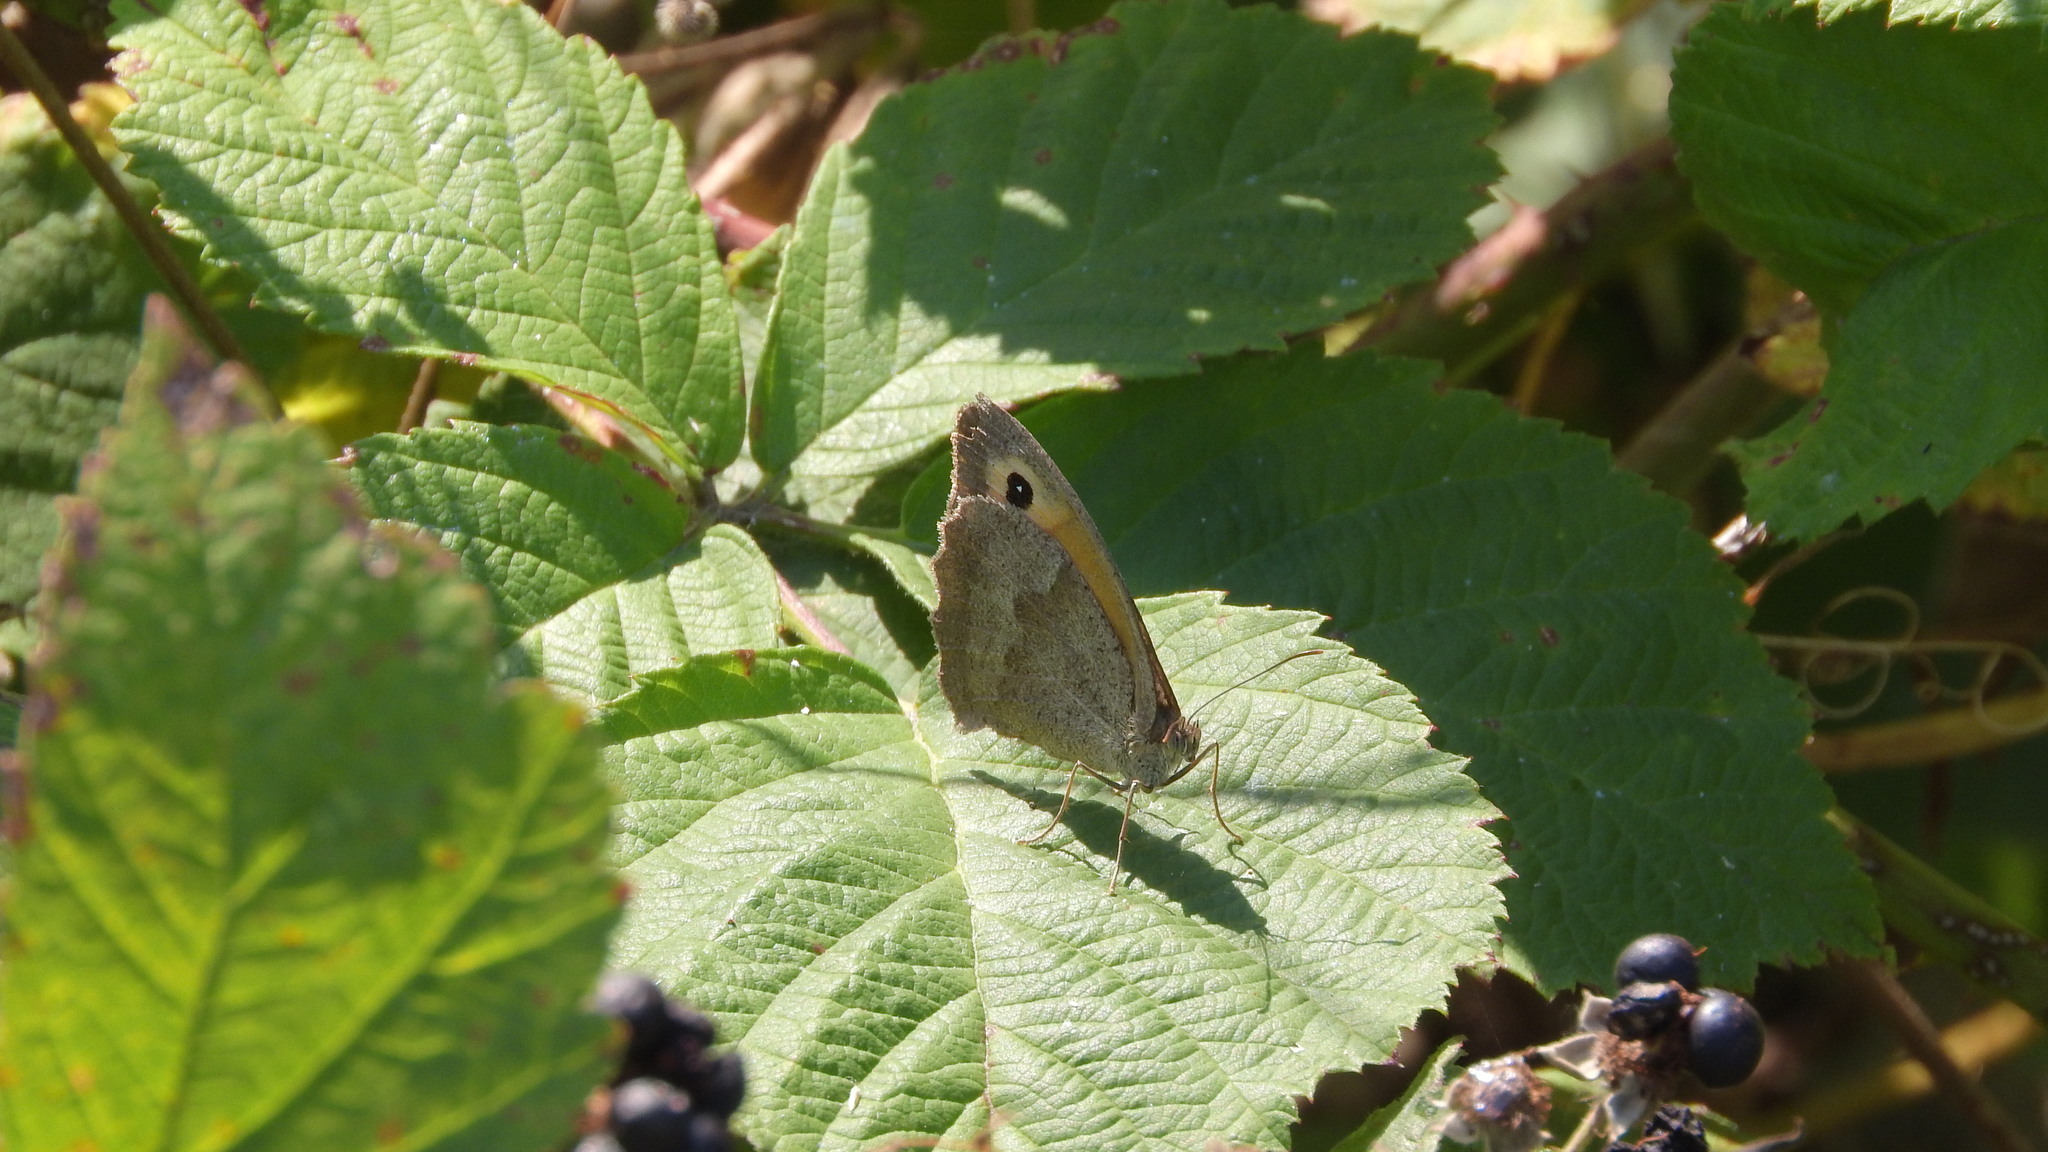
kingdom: Animalia
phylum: Arthropoda
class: Insecta
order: Lepidoptera
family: Nymphalidae
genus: Maniola
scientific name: Maniola jurtina
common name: Meadow brown
